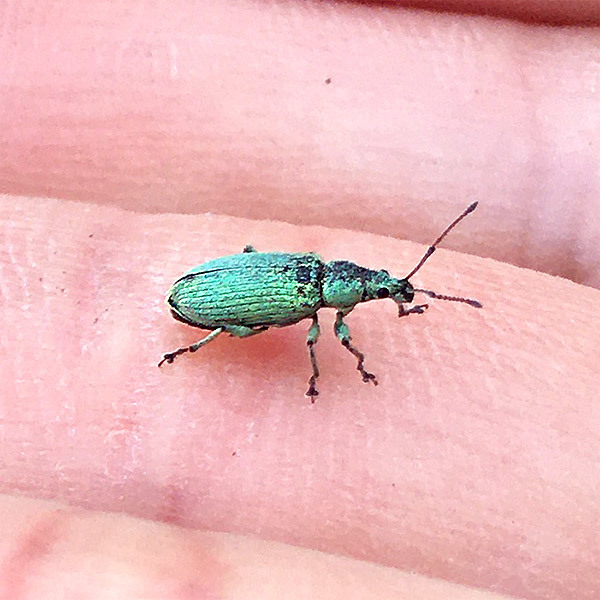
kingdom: Animalia
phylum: Arthropoda
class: Insecta
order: Coleoptera
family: Curculionidae
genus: Phyllobius
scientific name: Phyllobius maculicornis
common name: Green leaf weevil
